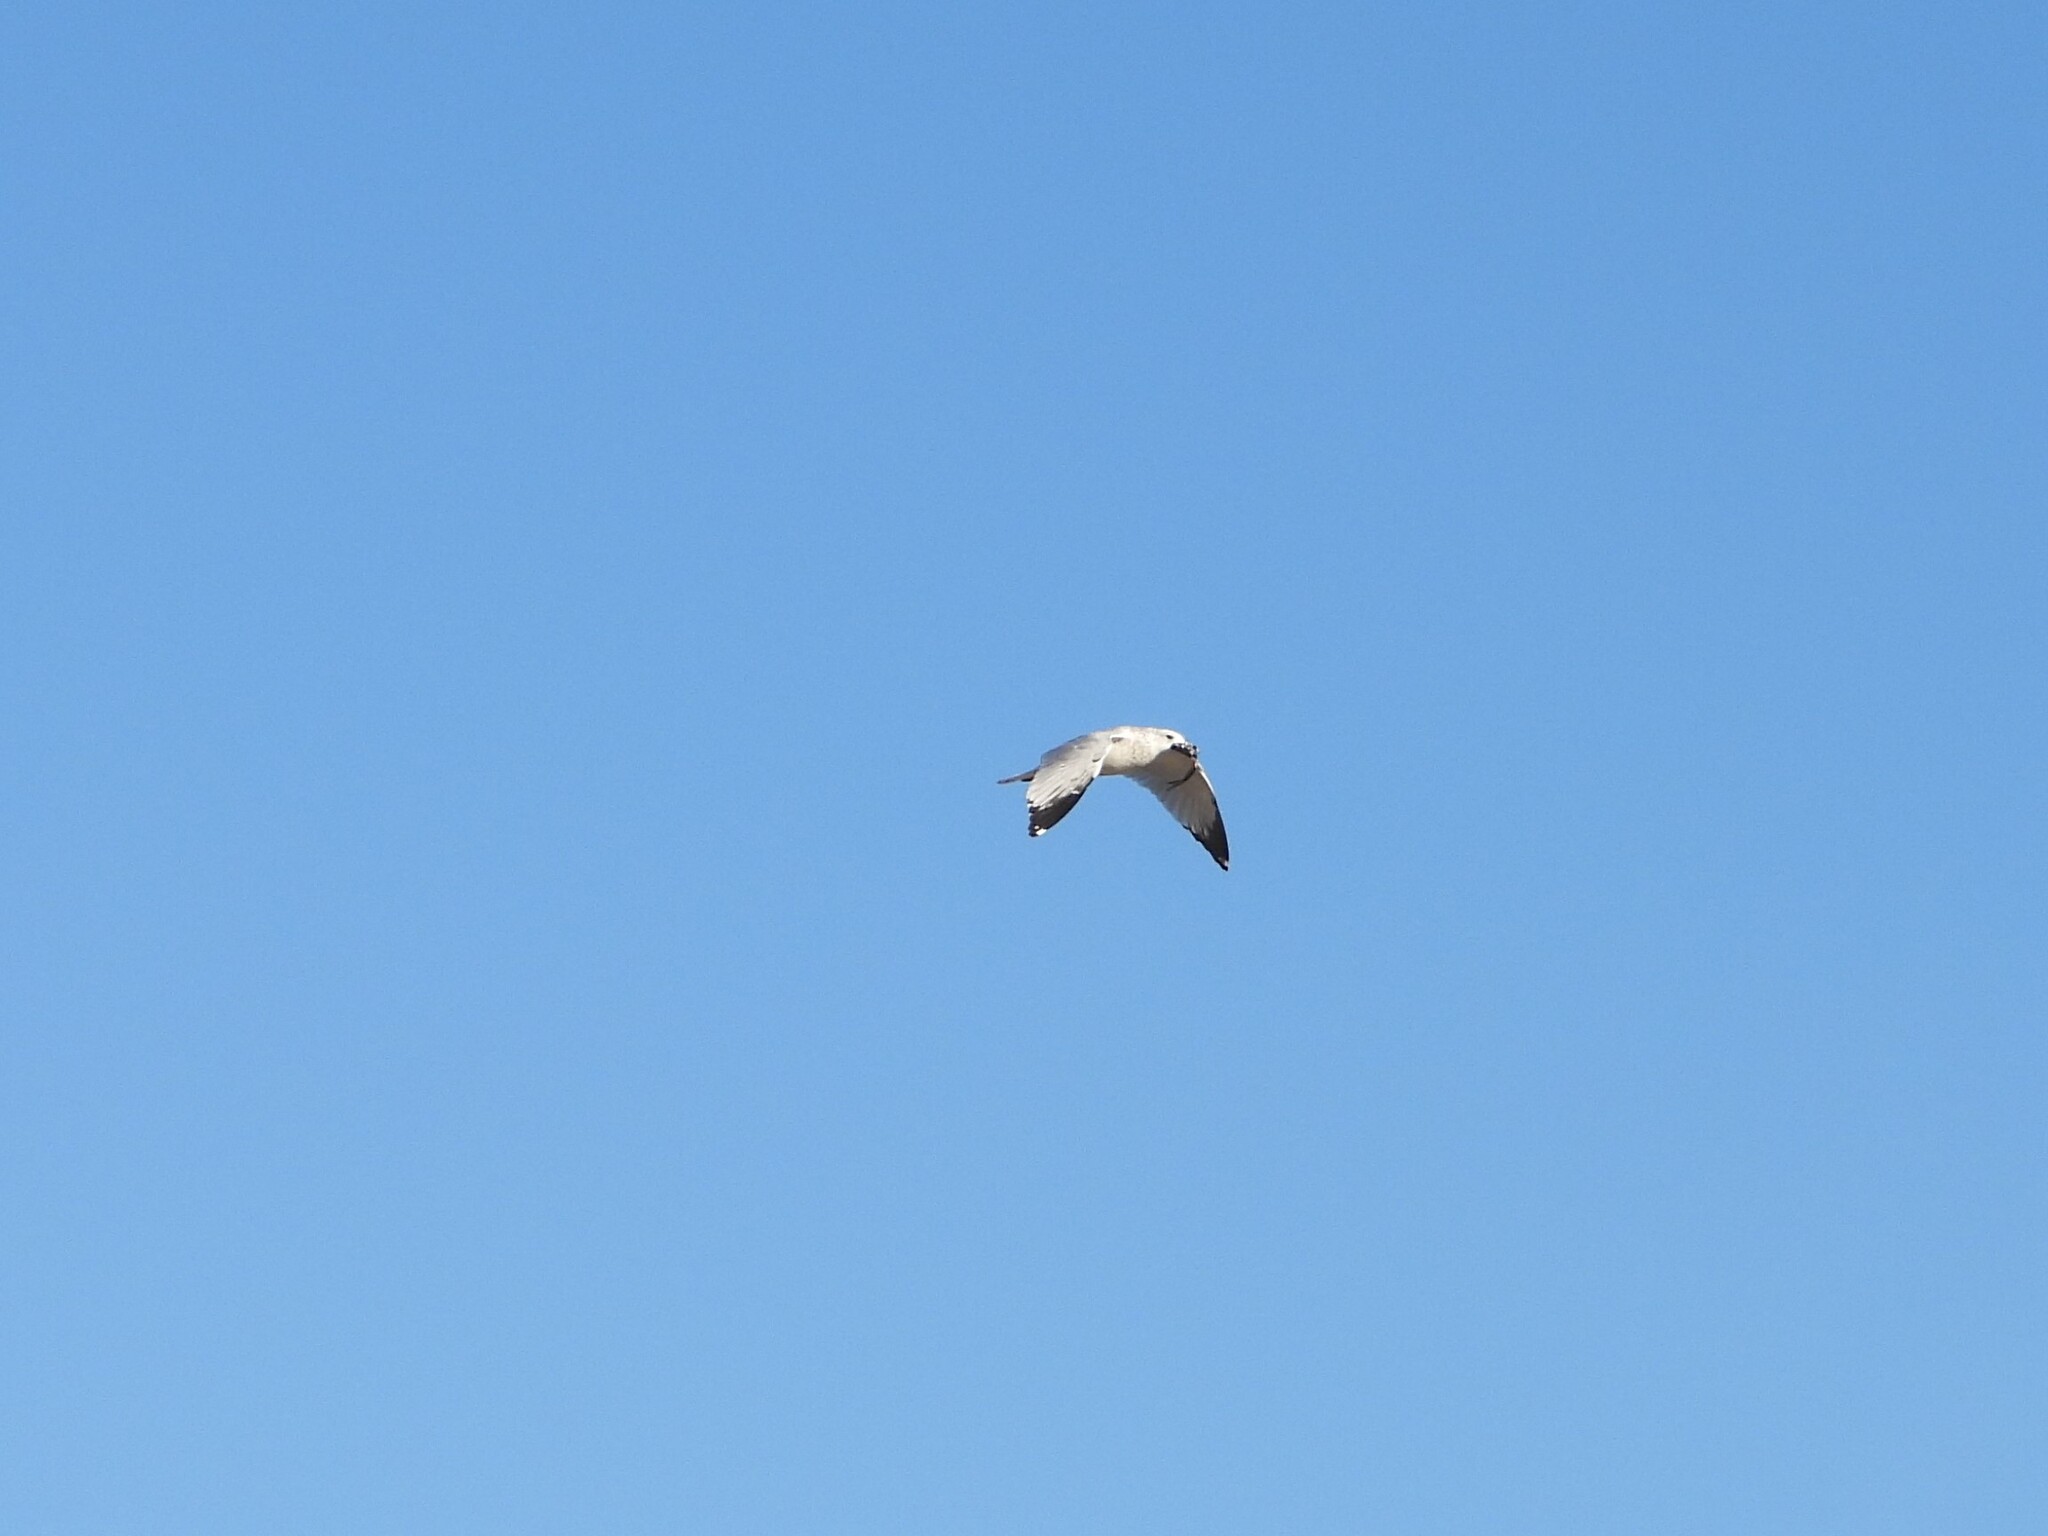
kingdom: Animalia
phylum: Chordata
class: Aves
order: Charadriiformes
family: Laridae
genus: Larus
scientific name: Larus delawarensis
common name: Ring-billed gull
